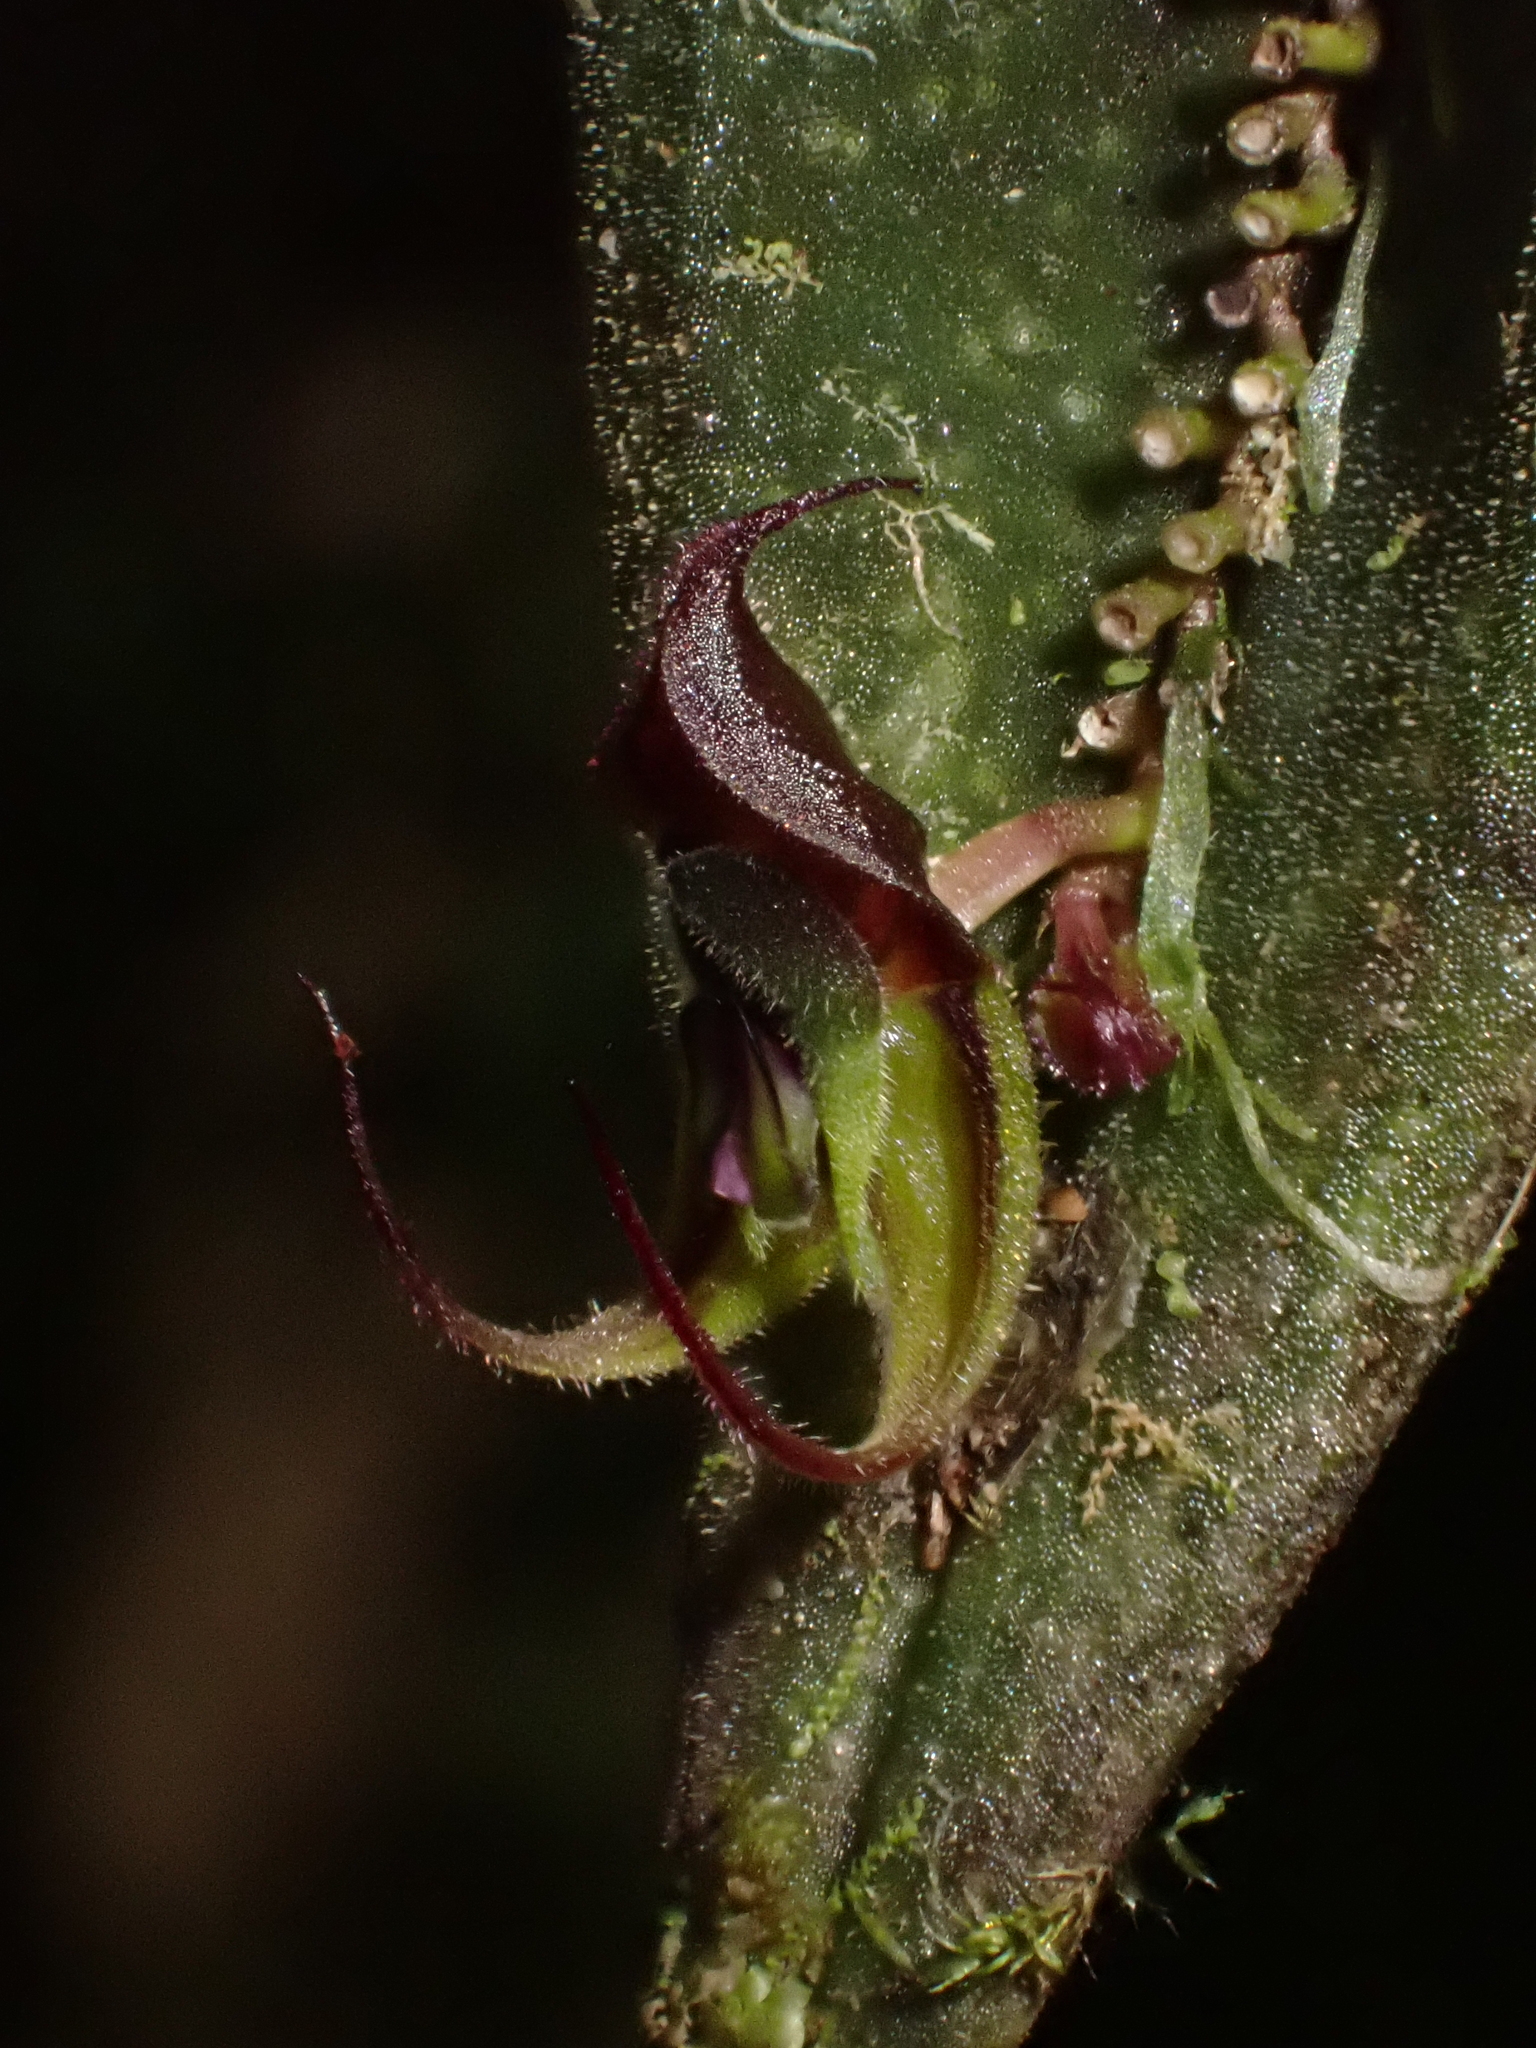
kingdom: Plantae
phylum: Tracheophyta
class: Liliopsida
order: Asparagales
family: Orchidaceae
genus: Lepanthes
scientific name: Lepanthes manabina
